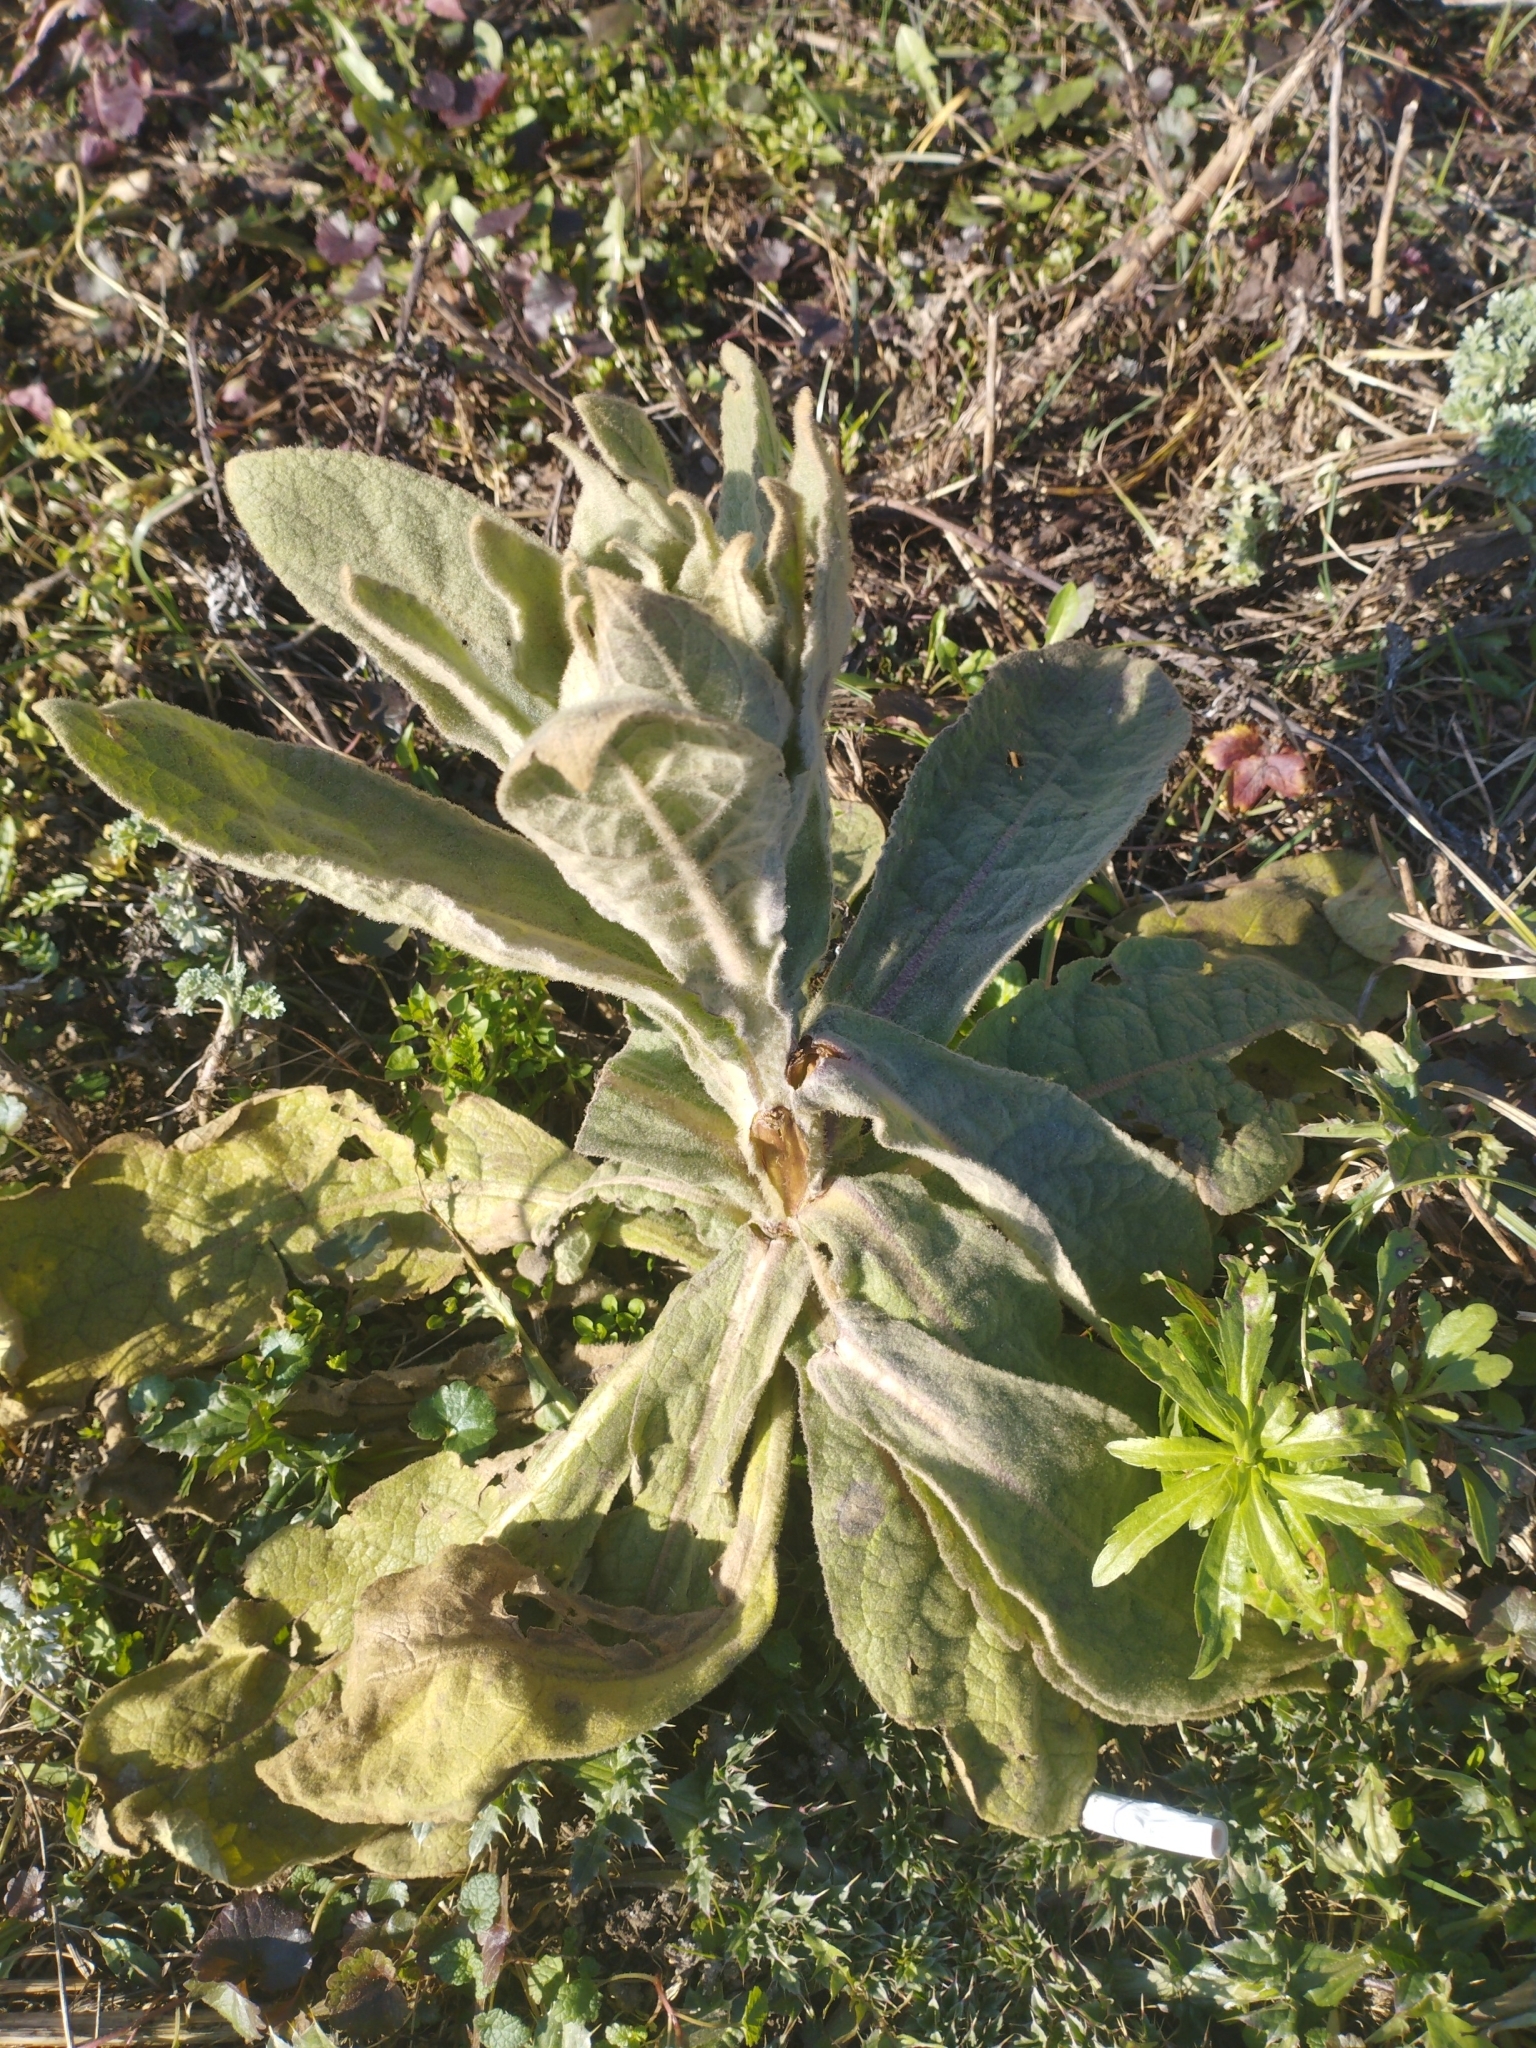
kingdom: Plantae
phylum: Tracheophyta
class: Magnoliopsida
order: Lamiales
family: Scrophulariaceae
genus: Verbascum
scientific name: Verbascum thapsus
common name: Common mullein
